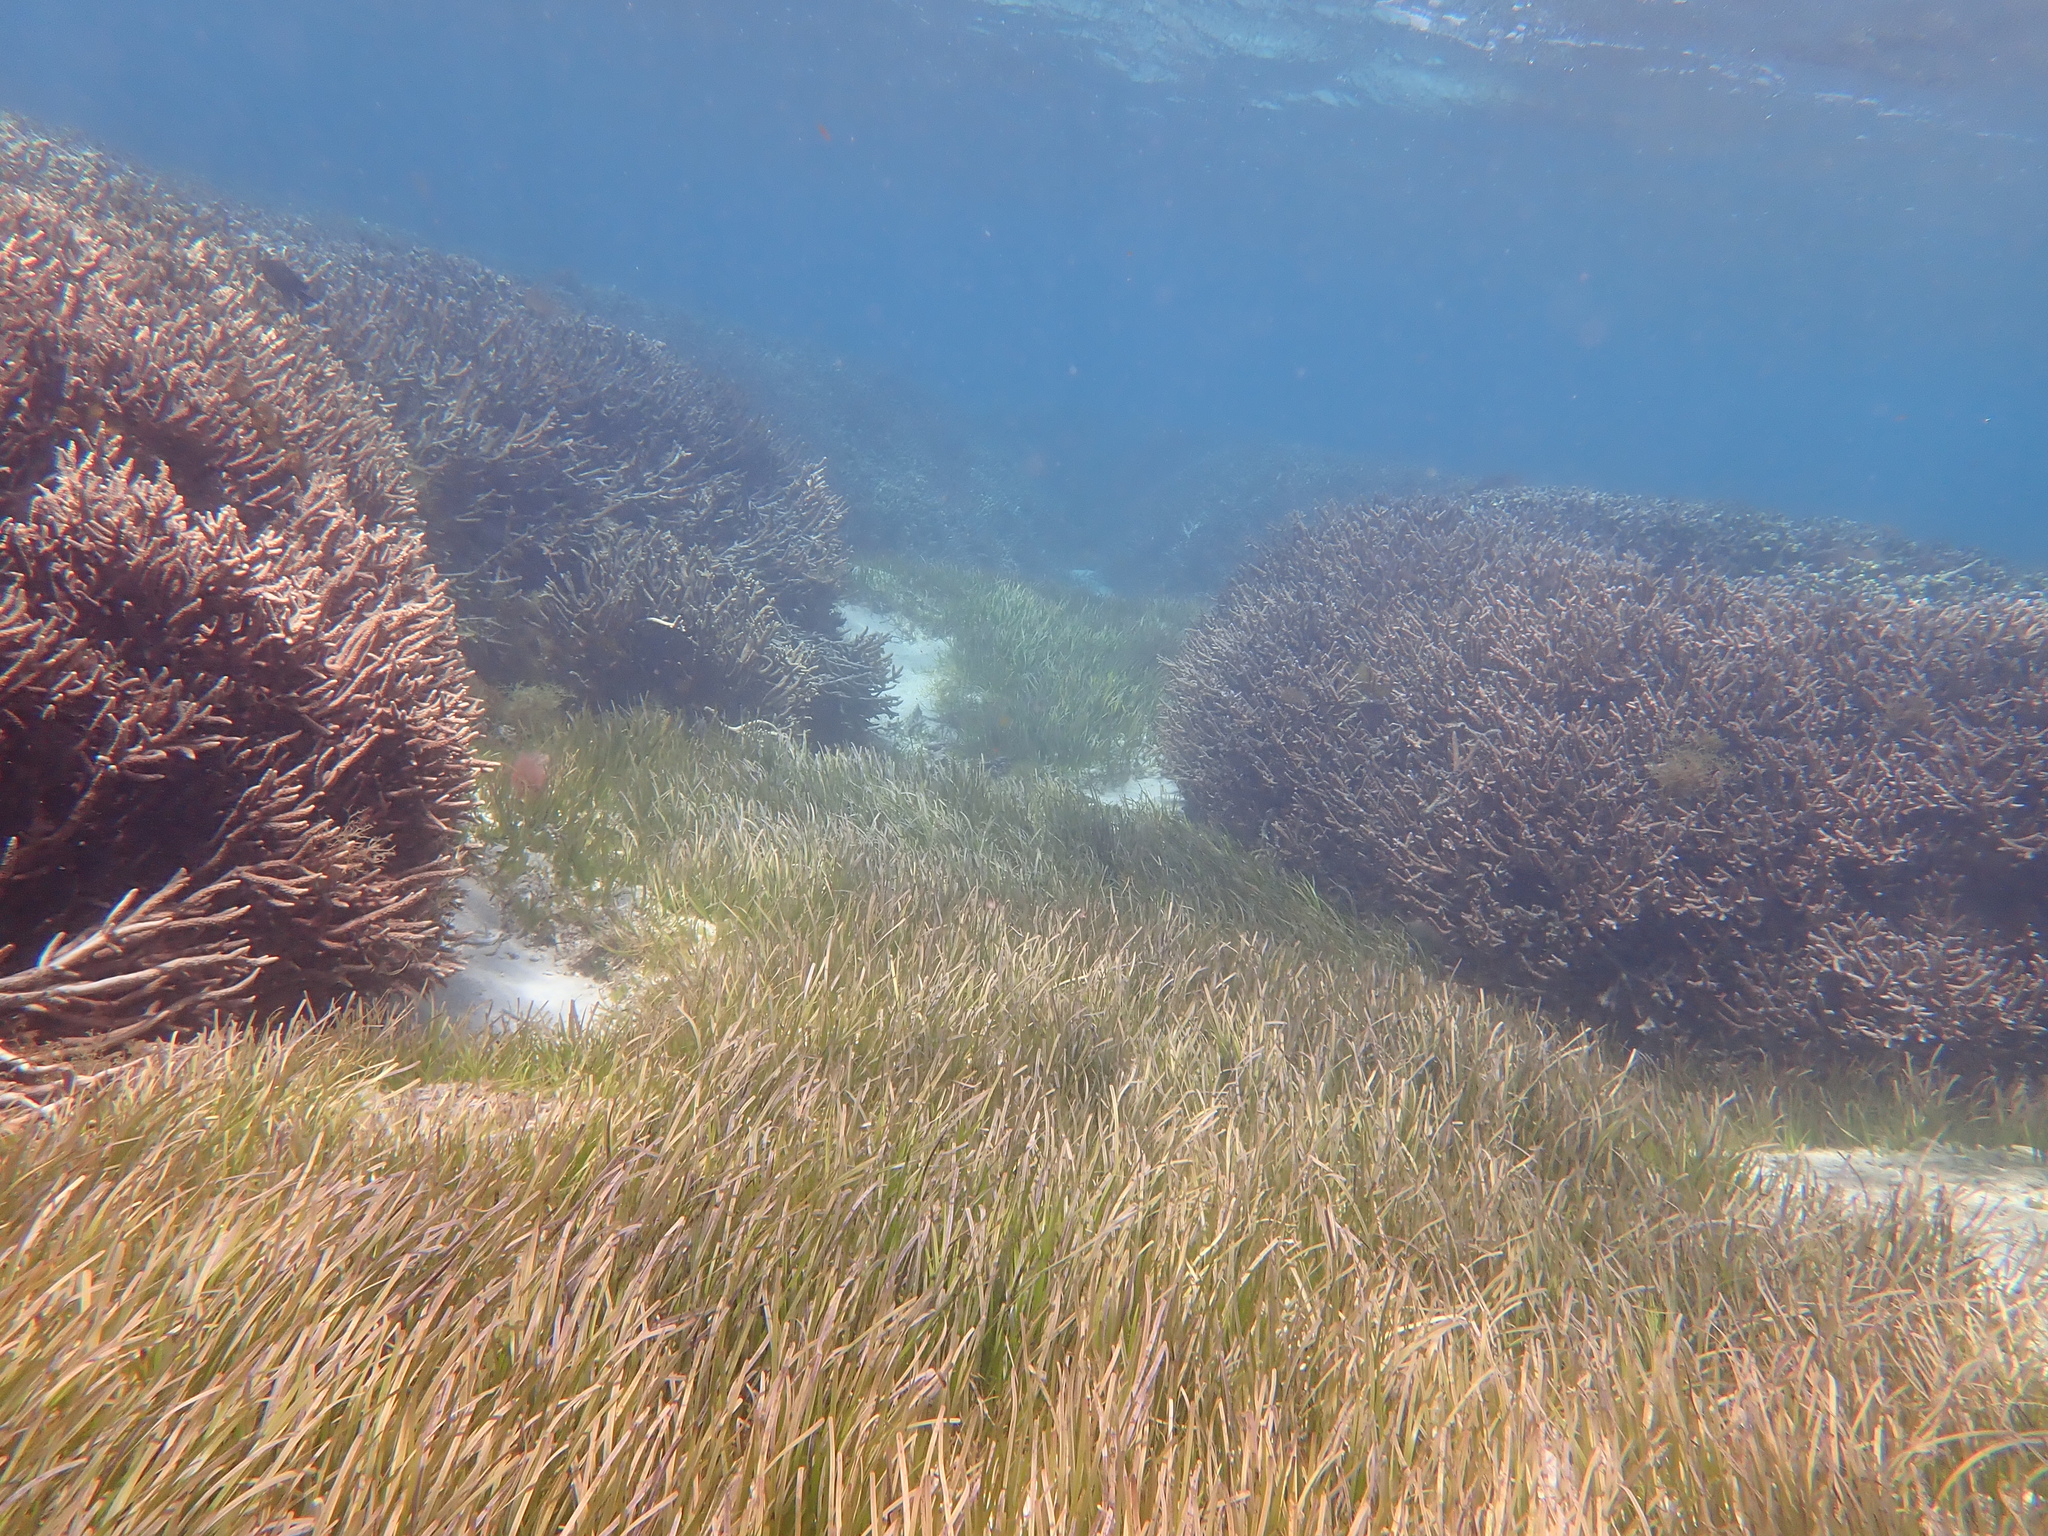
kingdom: Plantae
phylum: Tracheophyta
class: Liliopsida
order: Alismatales
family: Zosteraceae
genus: Zostera
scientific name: Zostera muelleri
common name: Species code: zc
